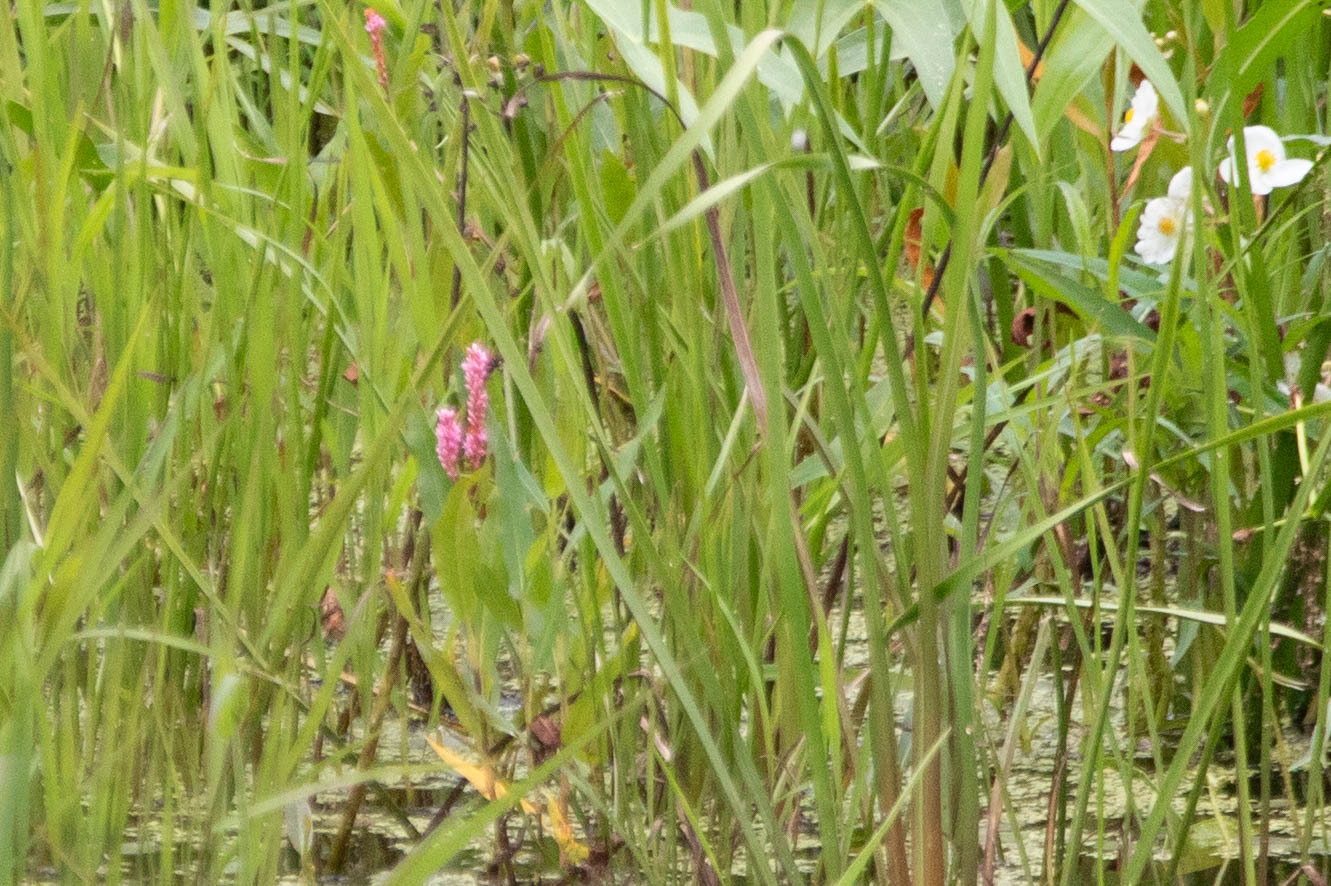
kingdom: Plantae
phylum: Tracheophyta
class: Magnoliopsida
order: Caryophyllales
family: Polygonaceae
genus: Persicaria
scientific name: Persicaria amphibia
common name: Amphibious bistort
